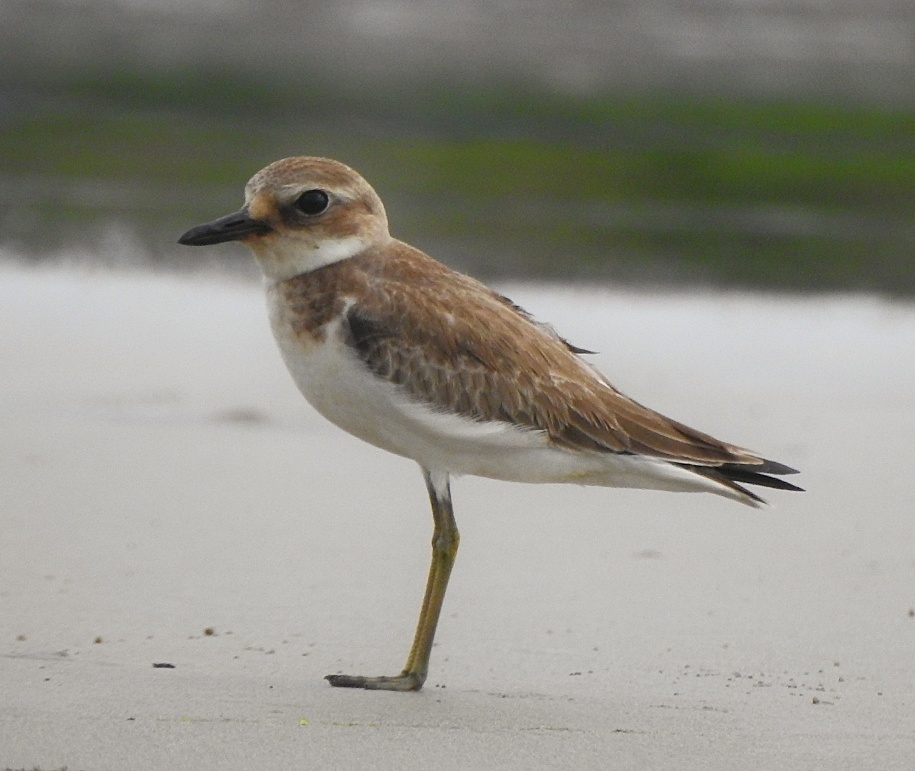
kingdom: Animalia
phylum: Chordata
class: Aves
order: Charadriiformes
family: Charadriidae
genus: Charadrius
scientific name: Charadrius leschenaultii
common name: Greater sand plover
